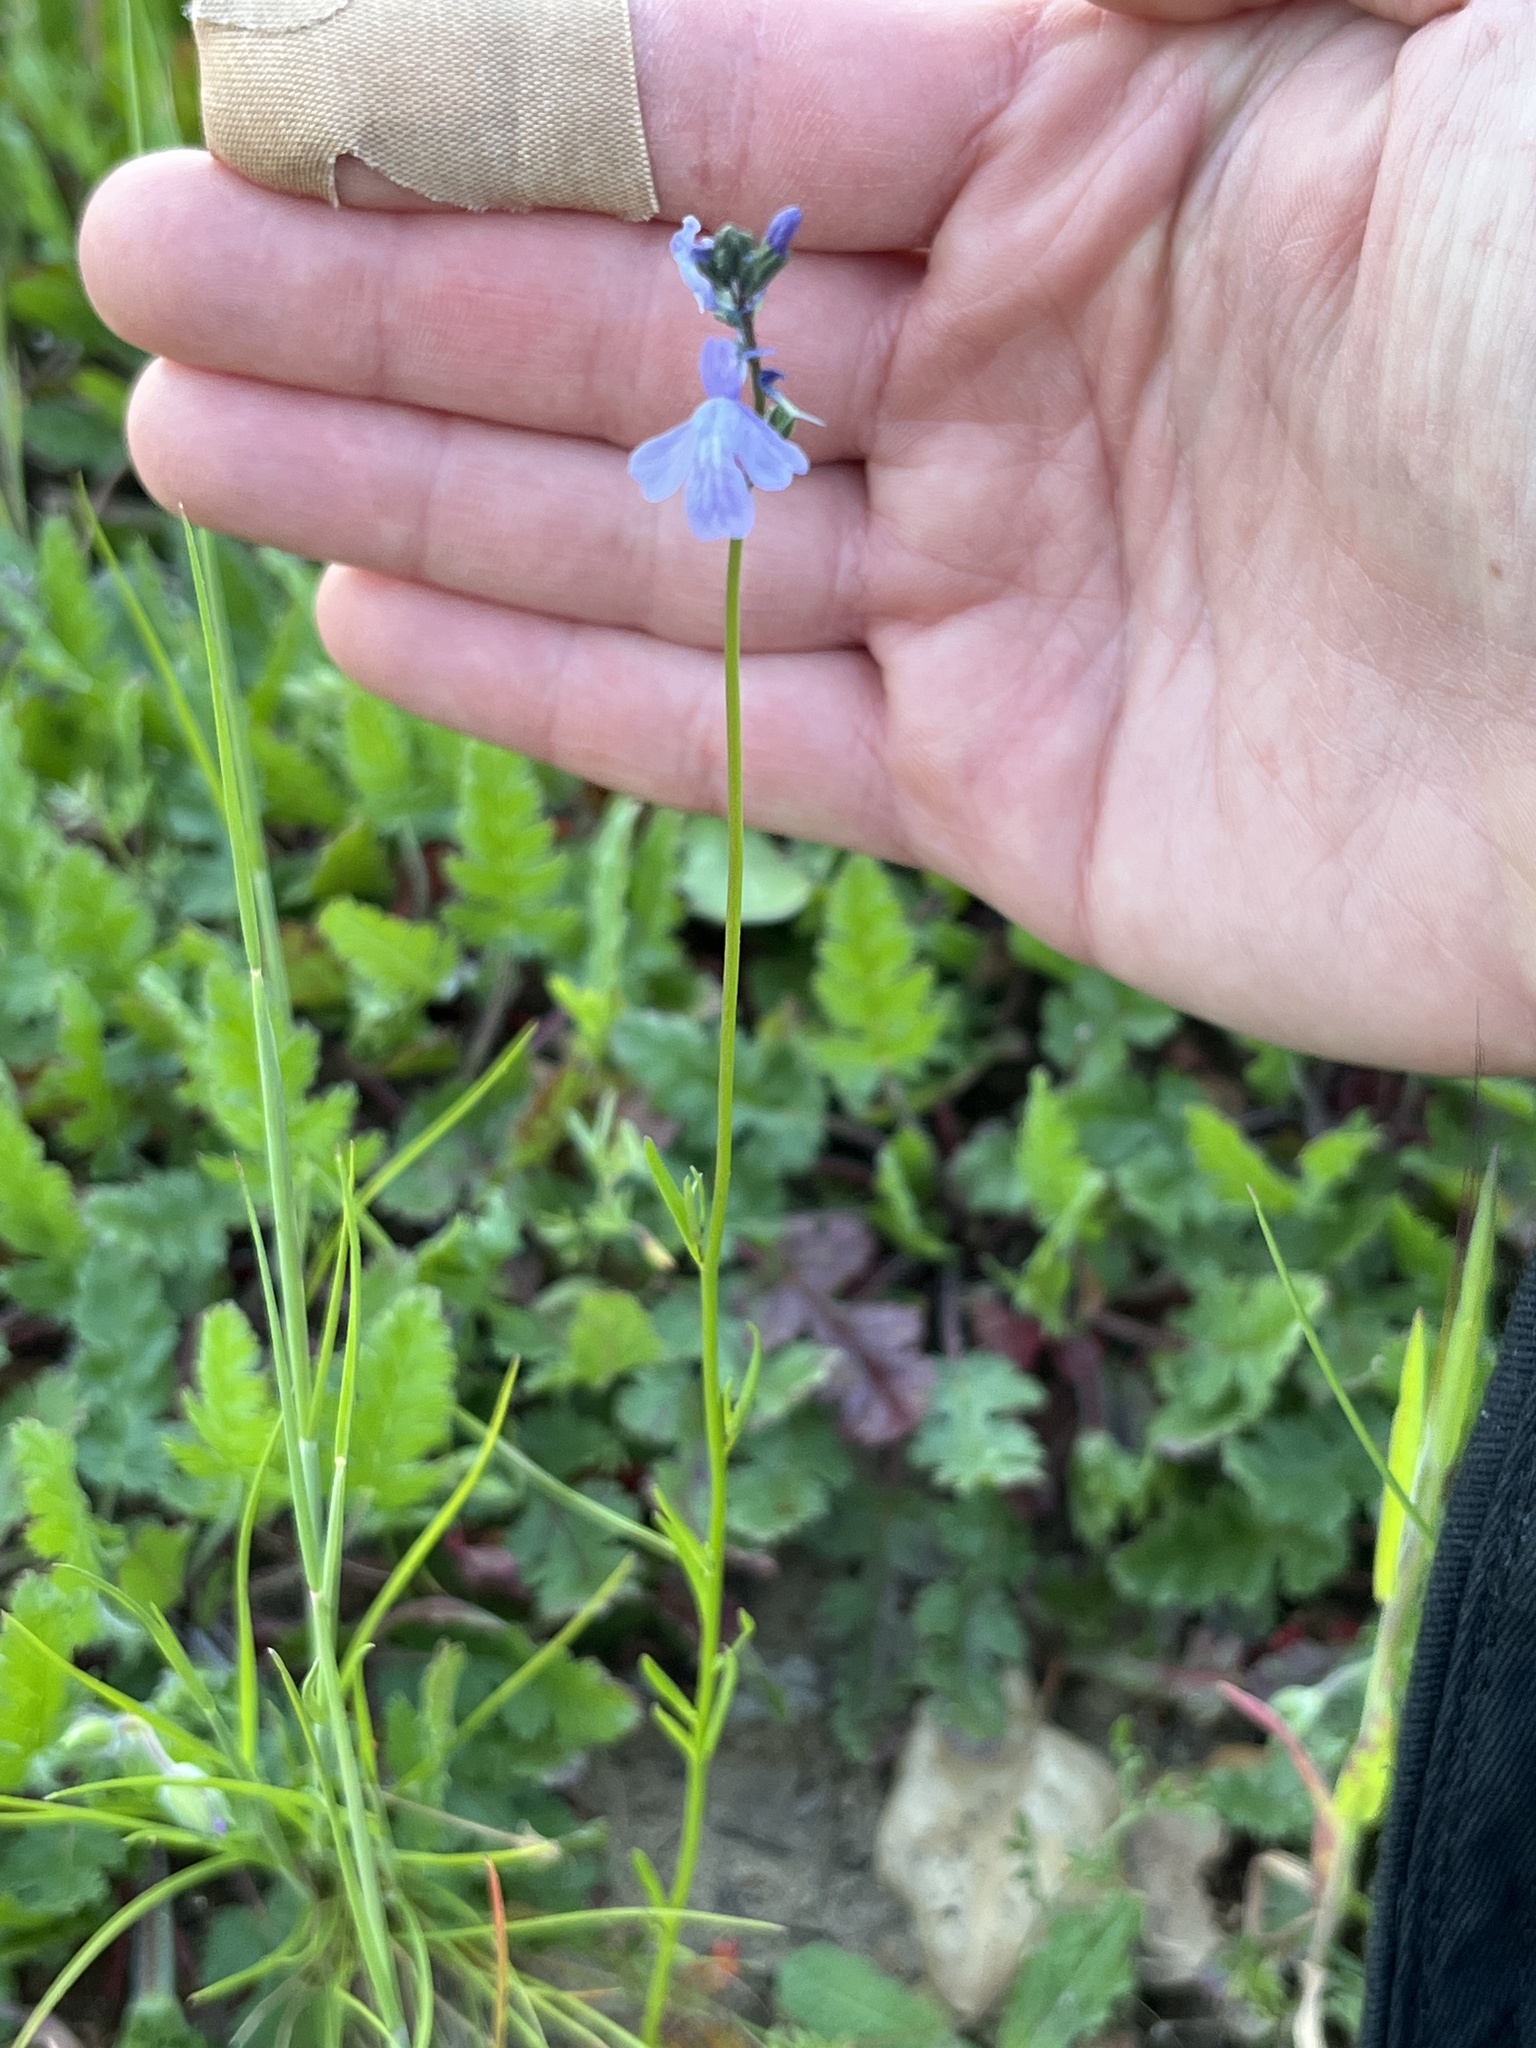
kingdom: Plantae
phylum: Tracheophyta
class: Magnoliopsida
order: Lamiales
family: Plantaginaceae
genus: Nuttallanthus
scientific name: Nuttallanthus texanus
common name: Texas toadflax
